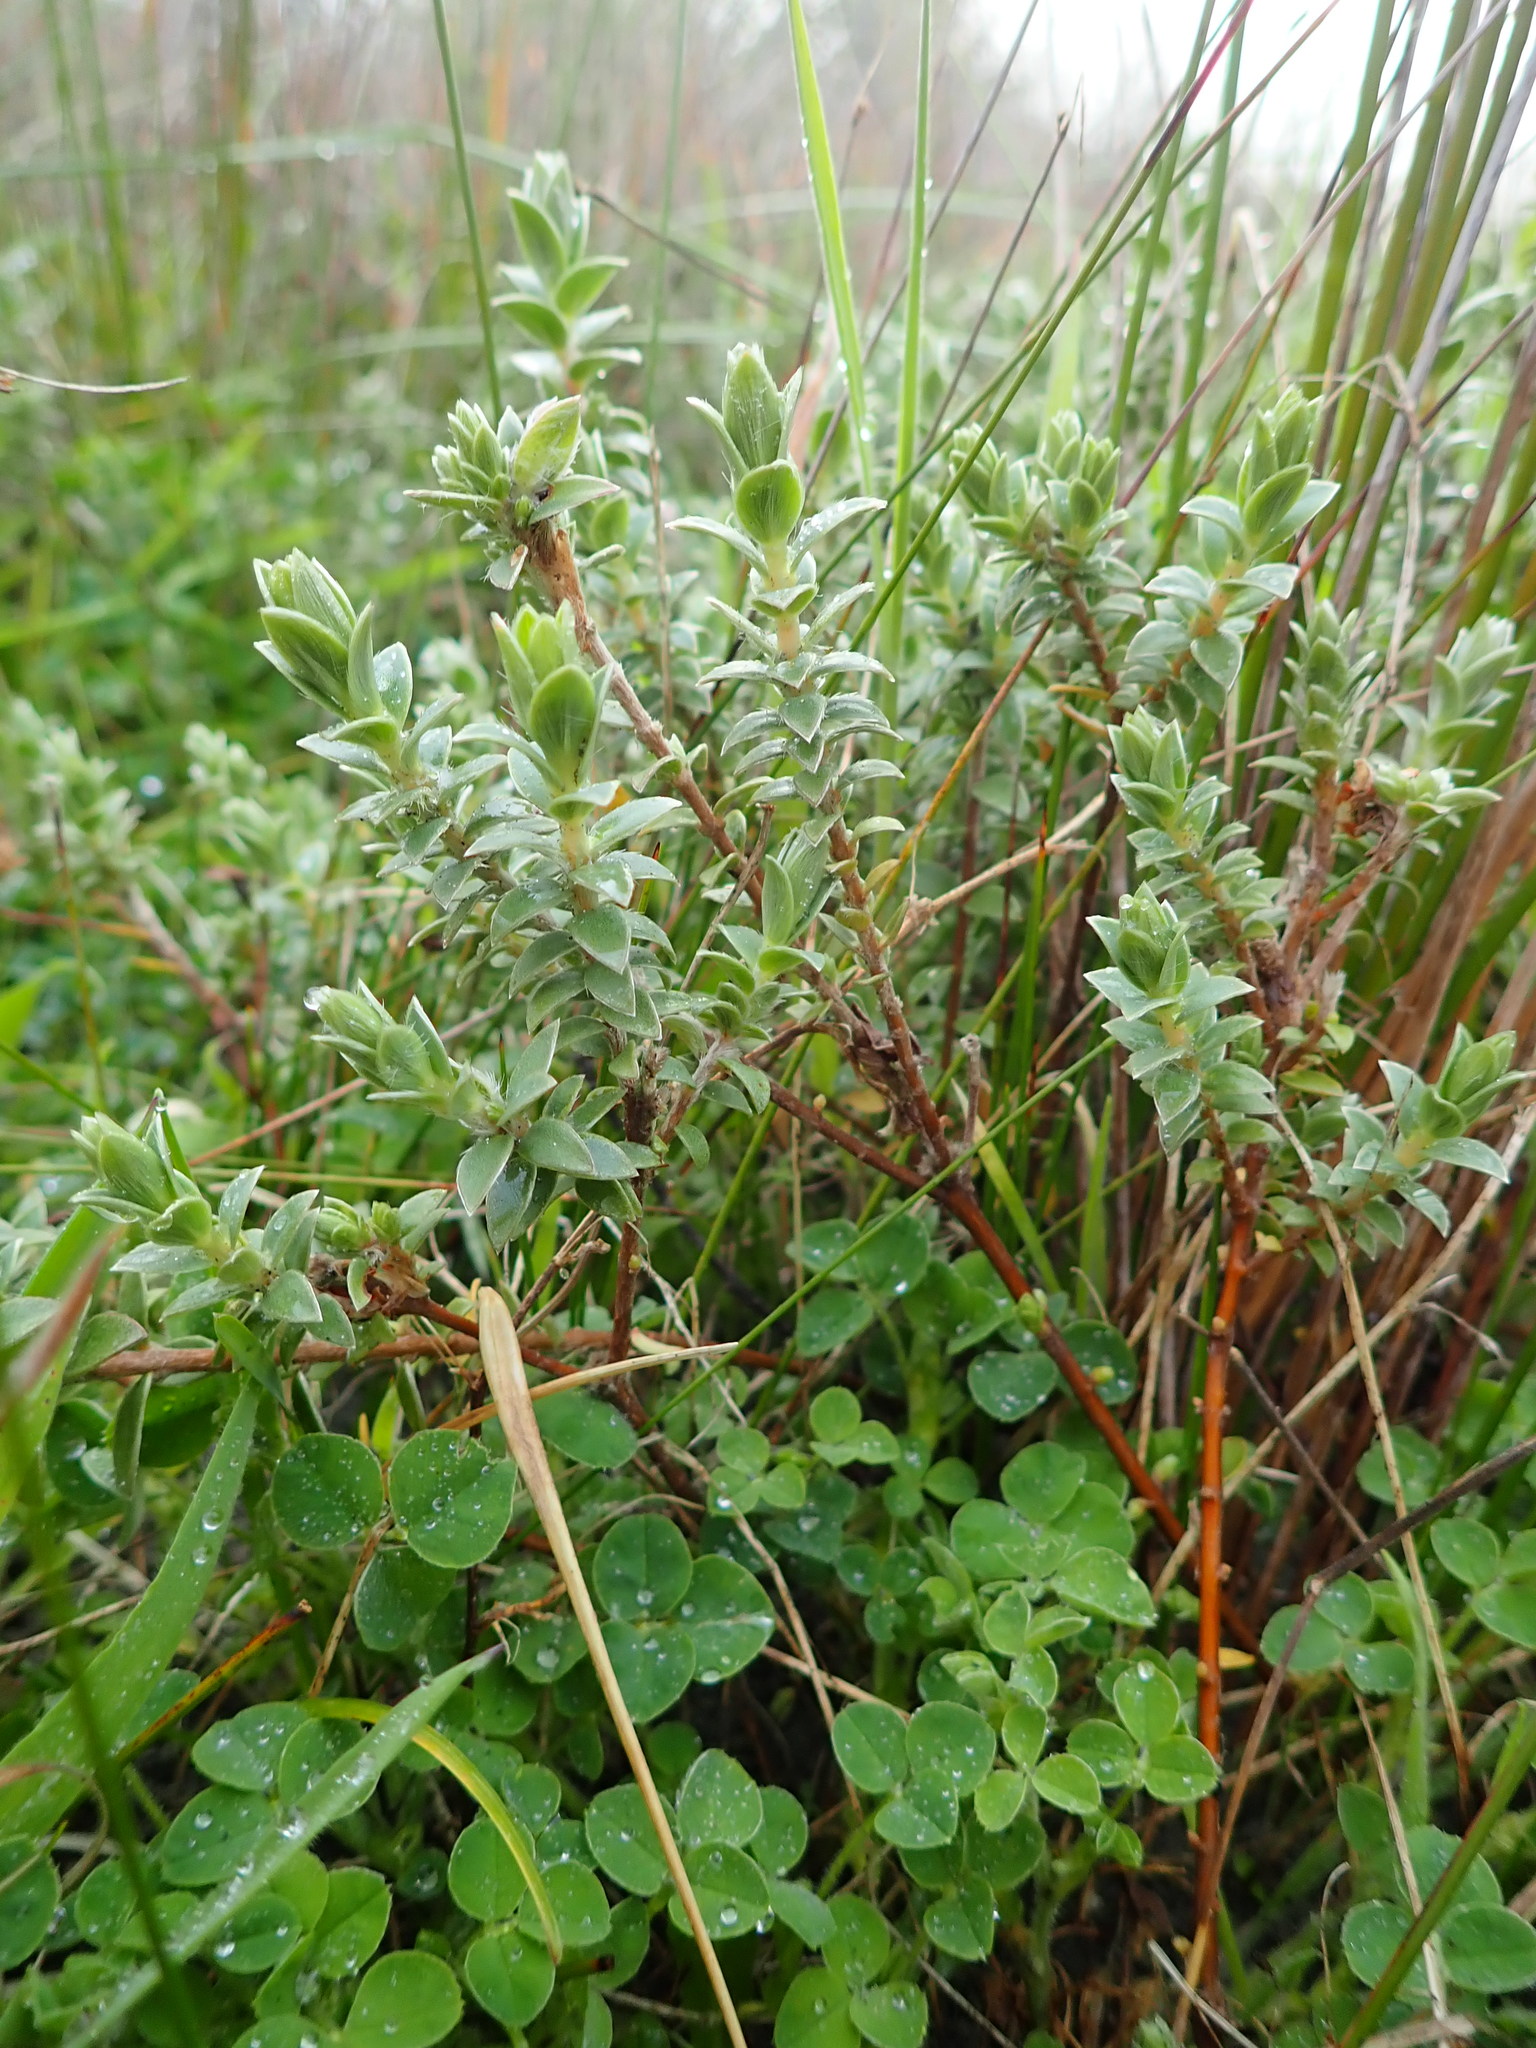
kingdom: Plantae
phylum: Tracheophyta
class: Magnoliopsida
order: Malvales
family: Thymelaeaceae
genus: Pimelea
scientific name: Pimelea villosa
